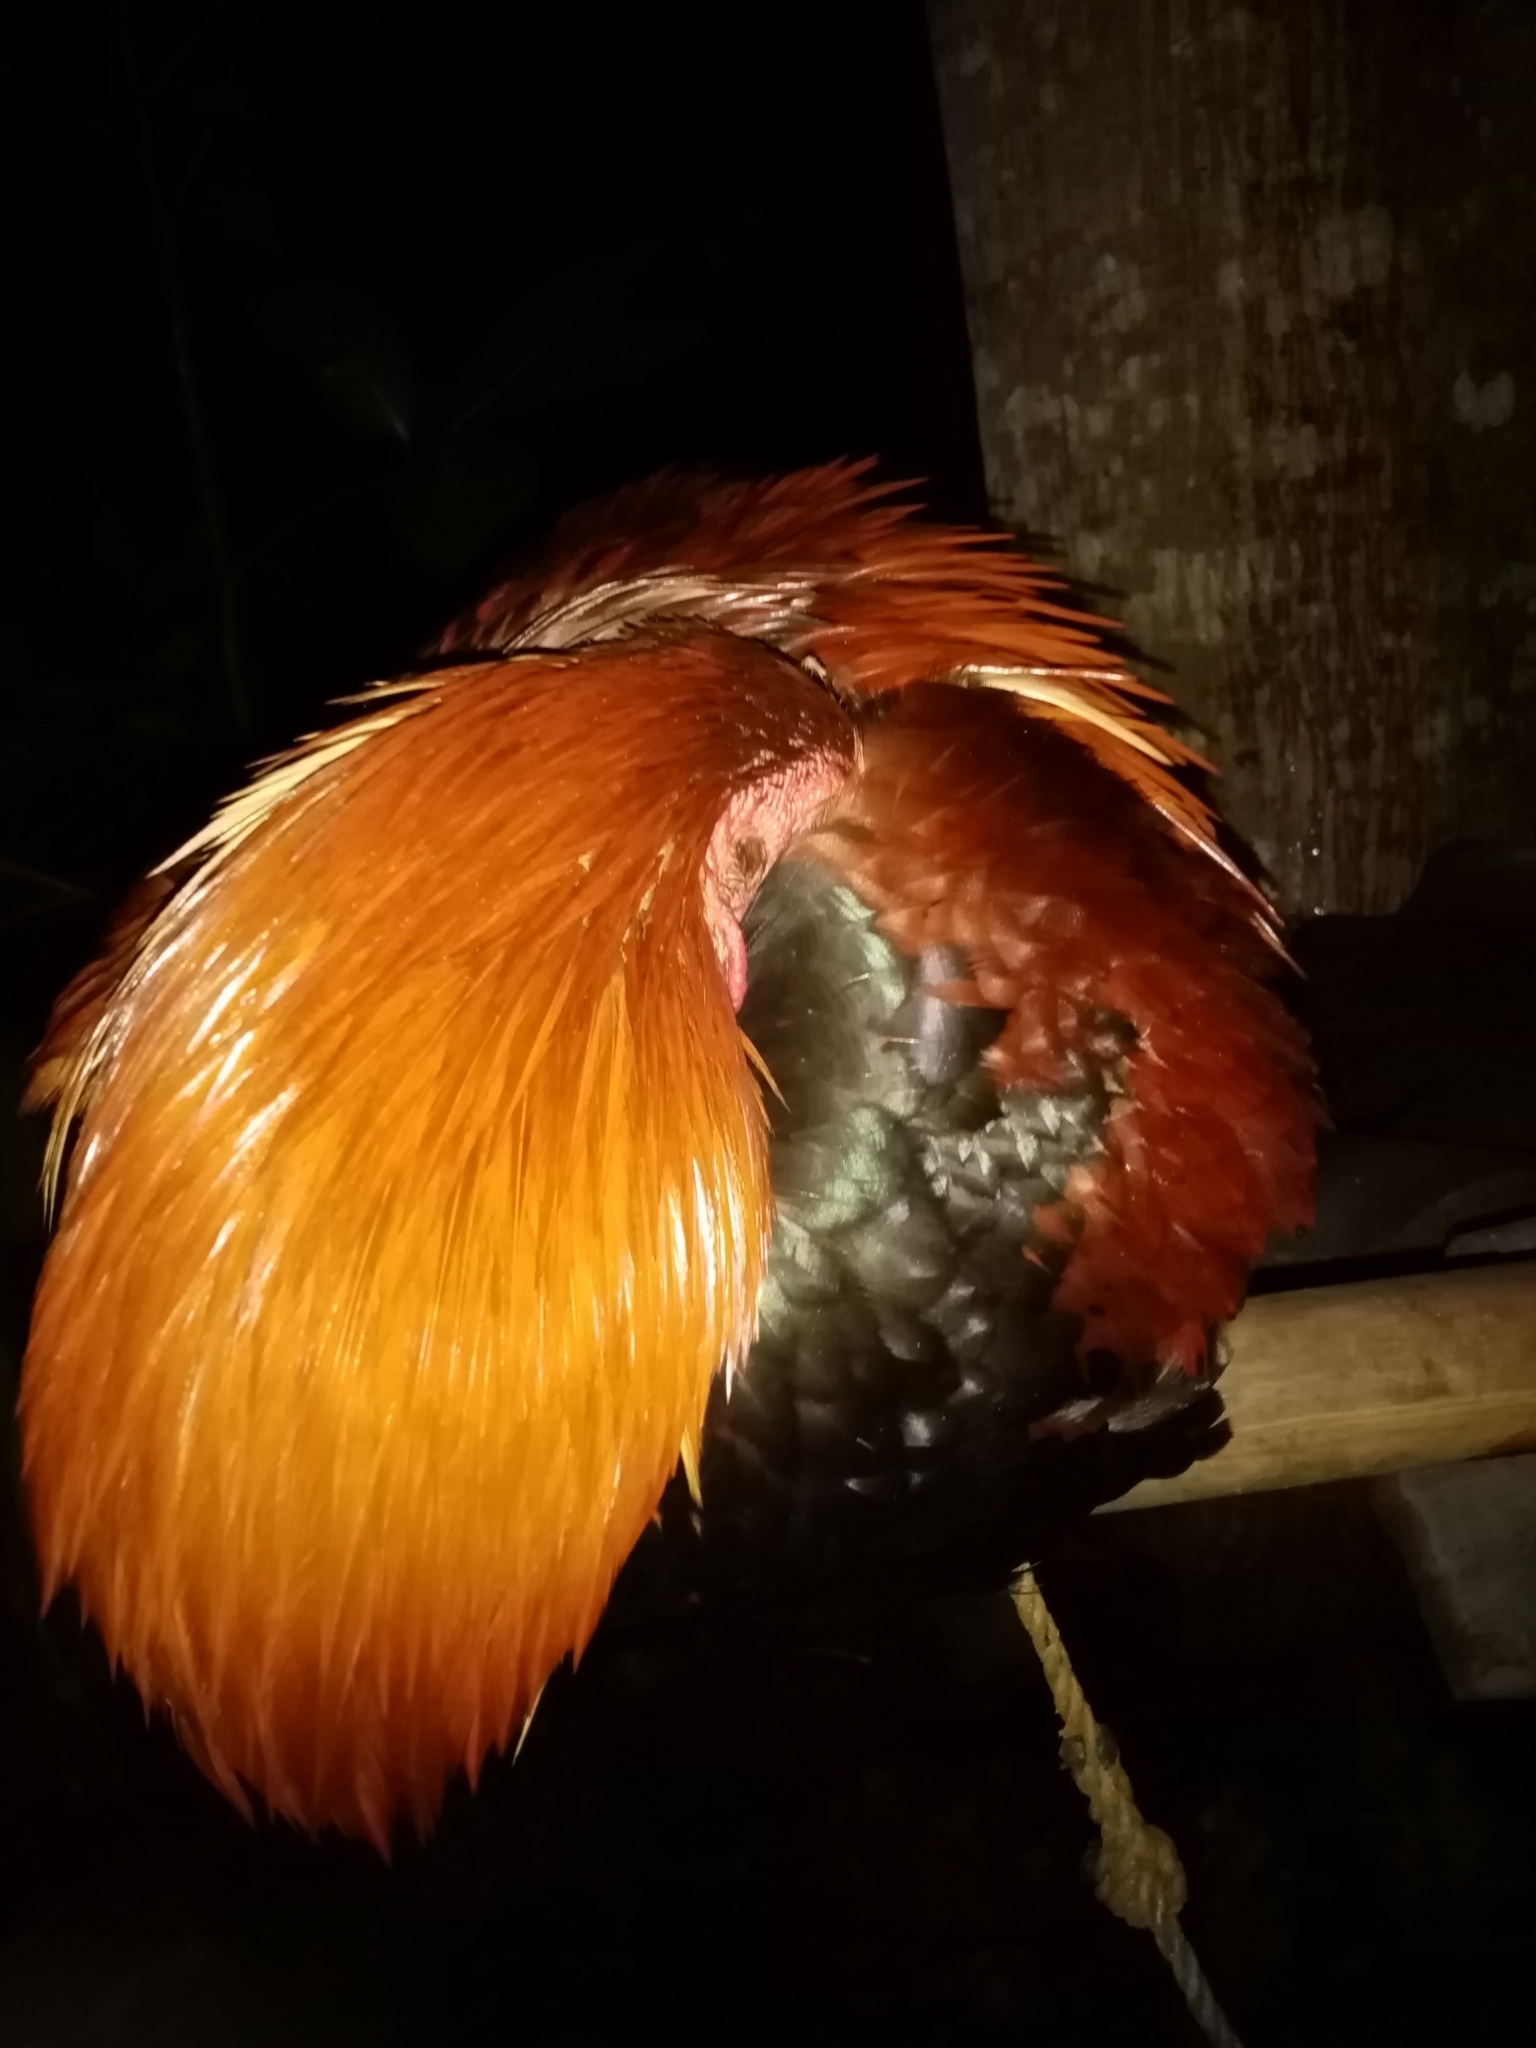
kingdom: Animalia
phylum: Chordata
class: Aves
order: Galliformes
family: Phasianidae
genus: Gallus
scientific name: Gallus gallus
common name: Red junglefowl
